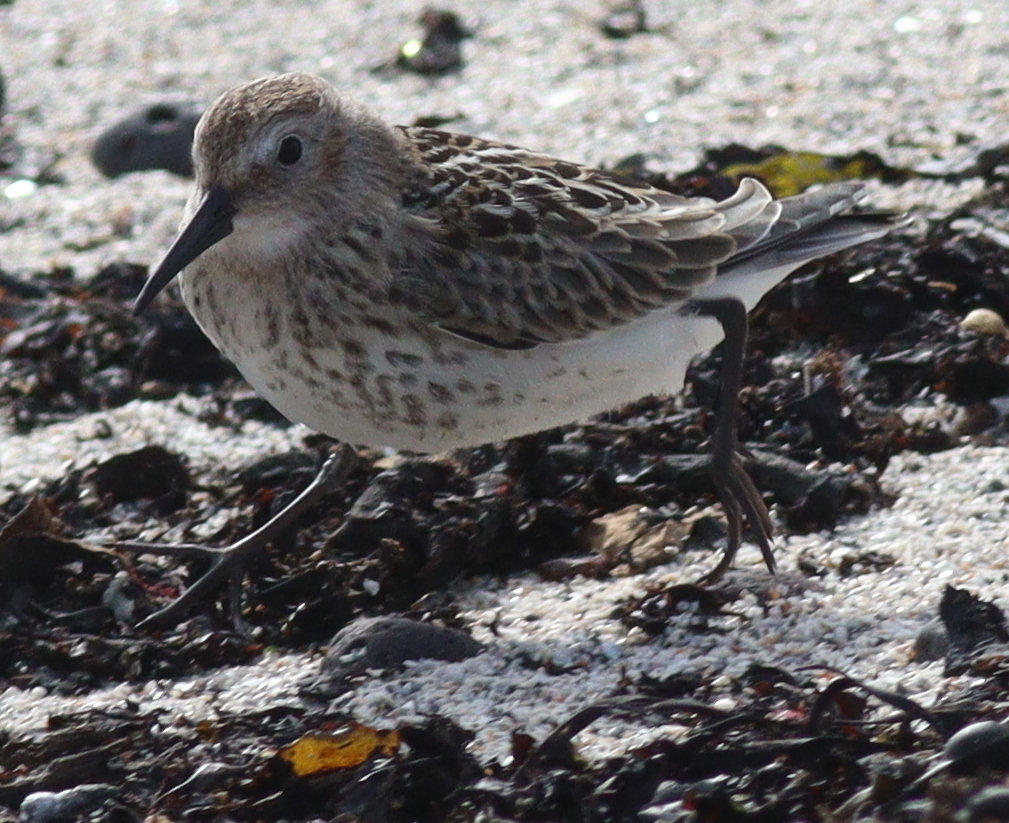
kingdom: Animalia
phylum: Chordata
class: Aves
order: Charadriiformes
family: Scolopacidae
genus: Calidris
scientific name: Calidris alpina
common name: Dunlin
